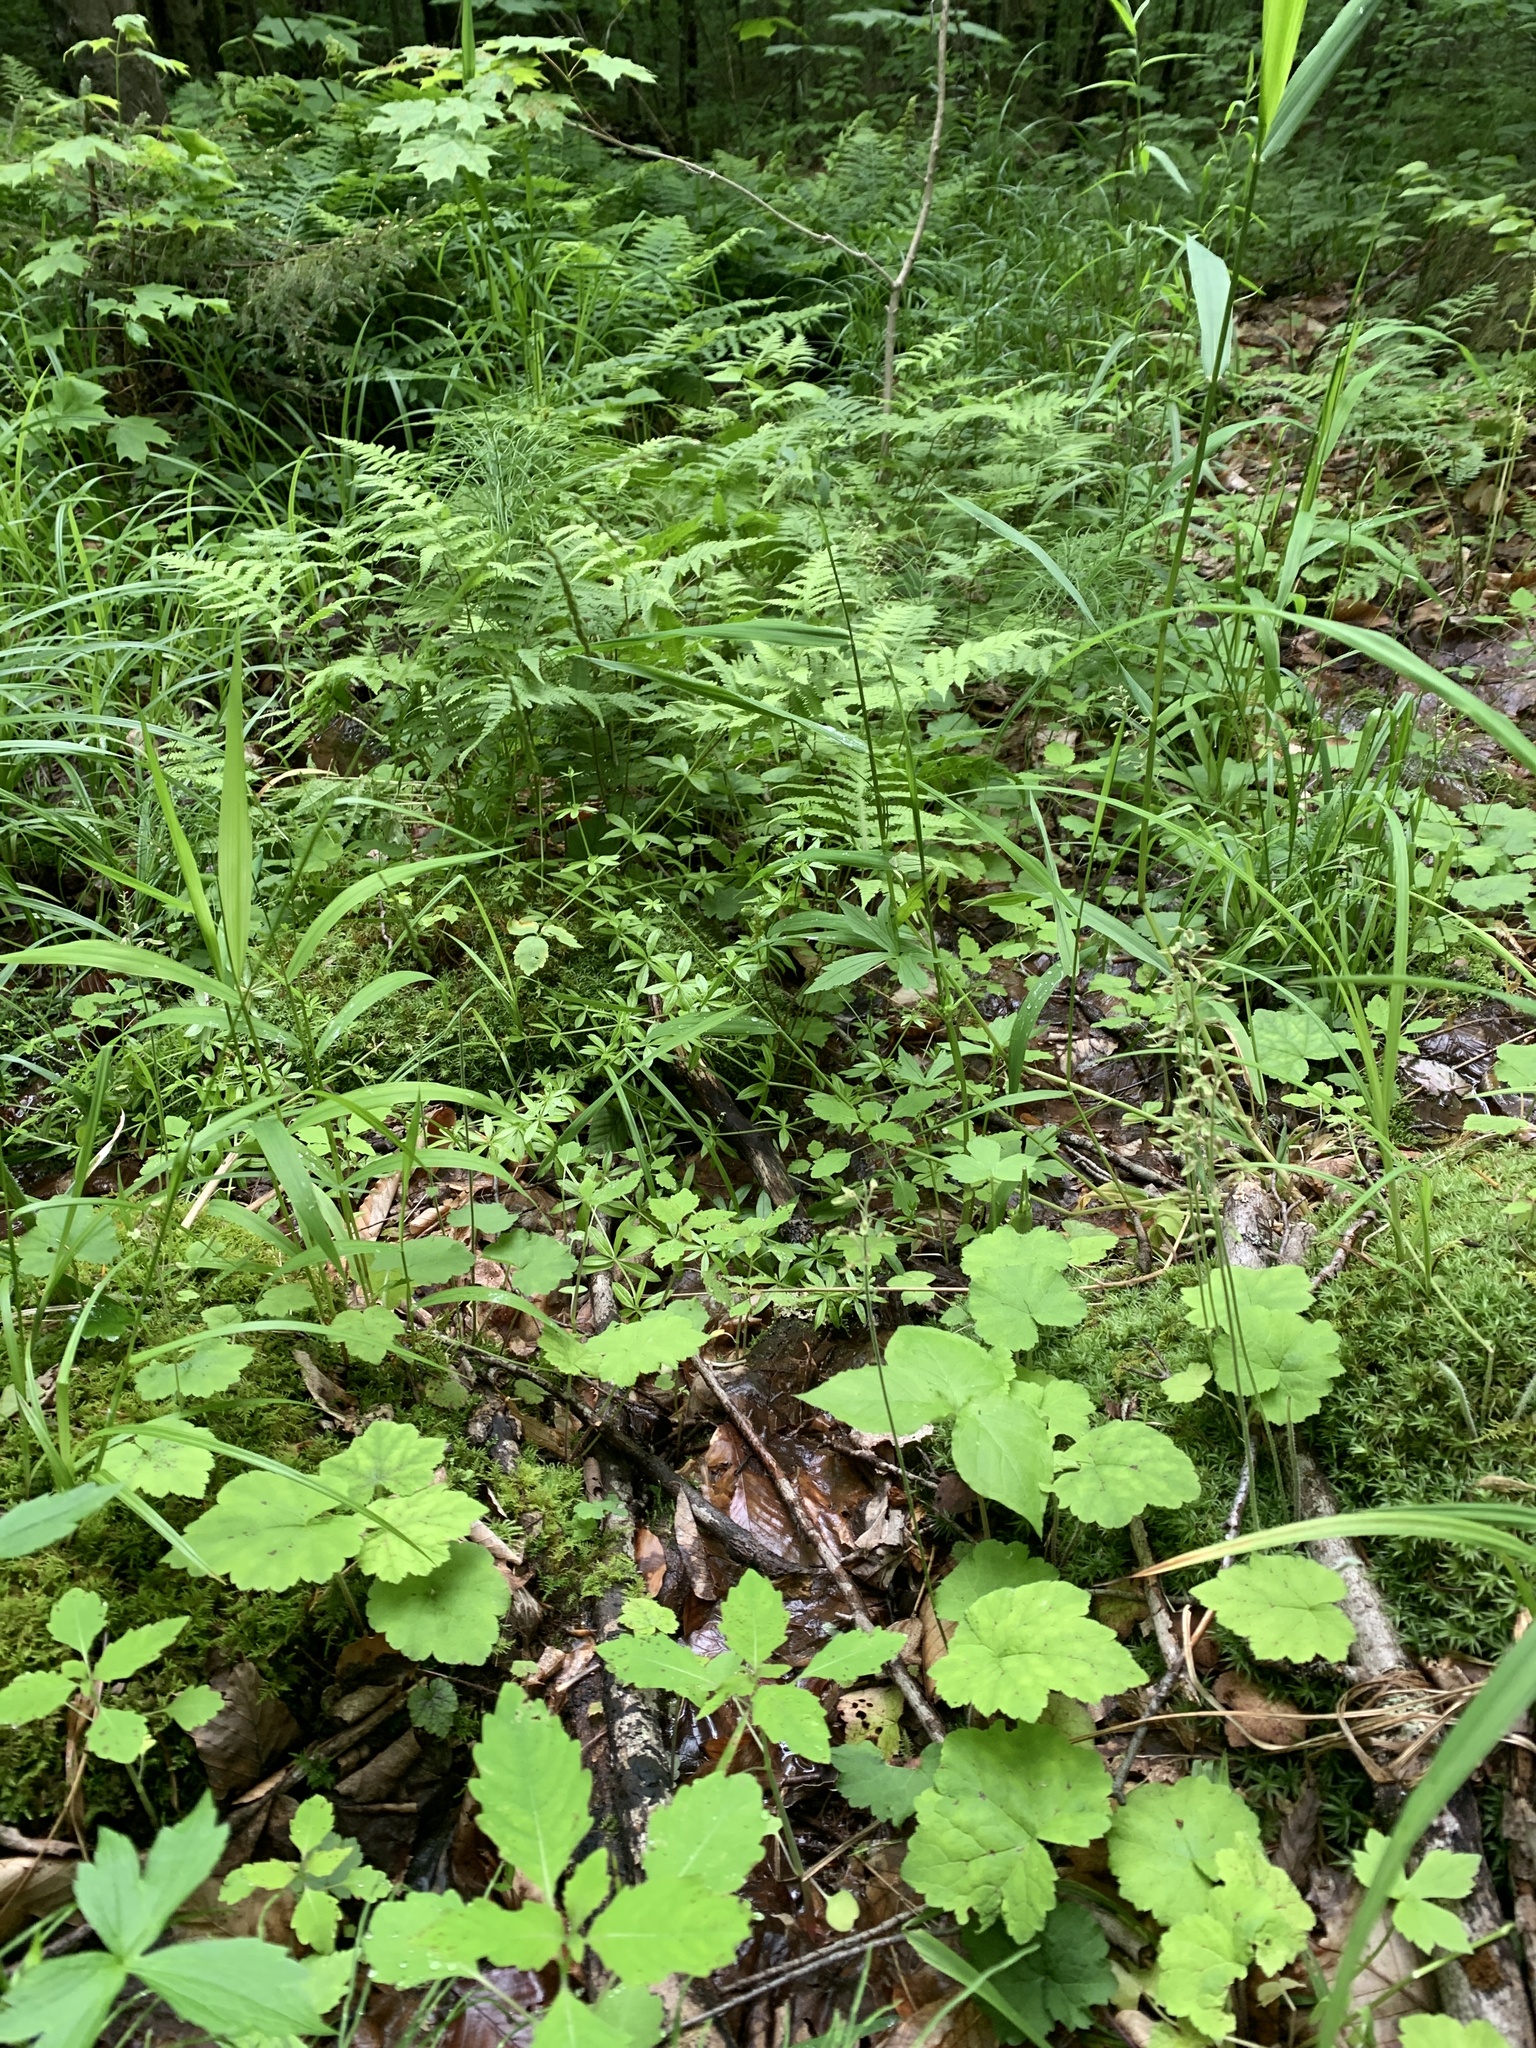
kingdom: Plantae
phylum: Tracheophyta
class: Magnoliopsida
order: Saxifragales
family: Saxifragaceae
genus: Tiarella
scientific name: Tiarella stolonifera
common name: Stoloniferous foamflower
